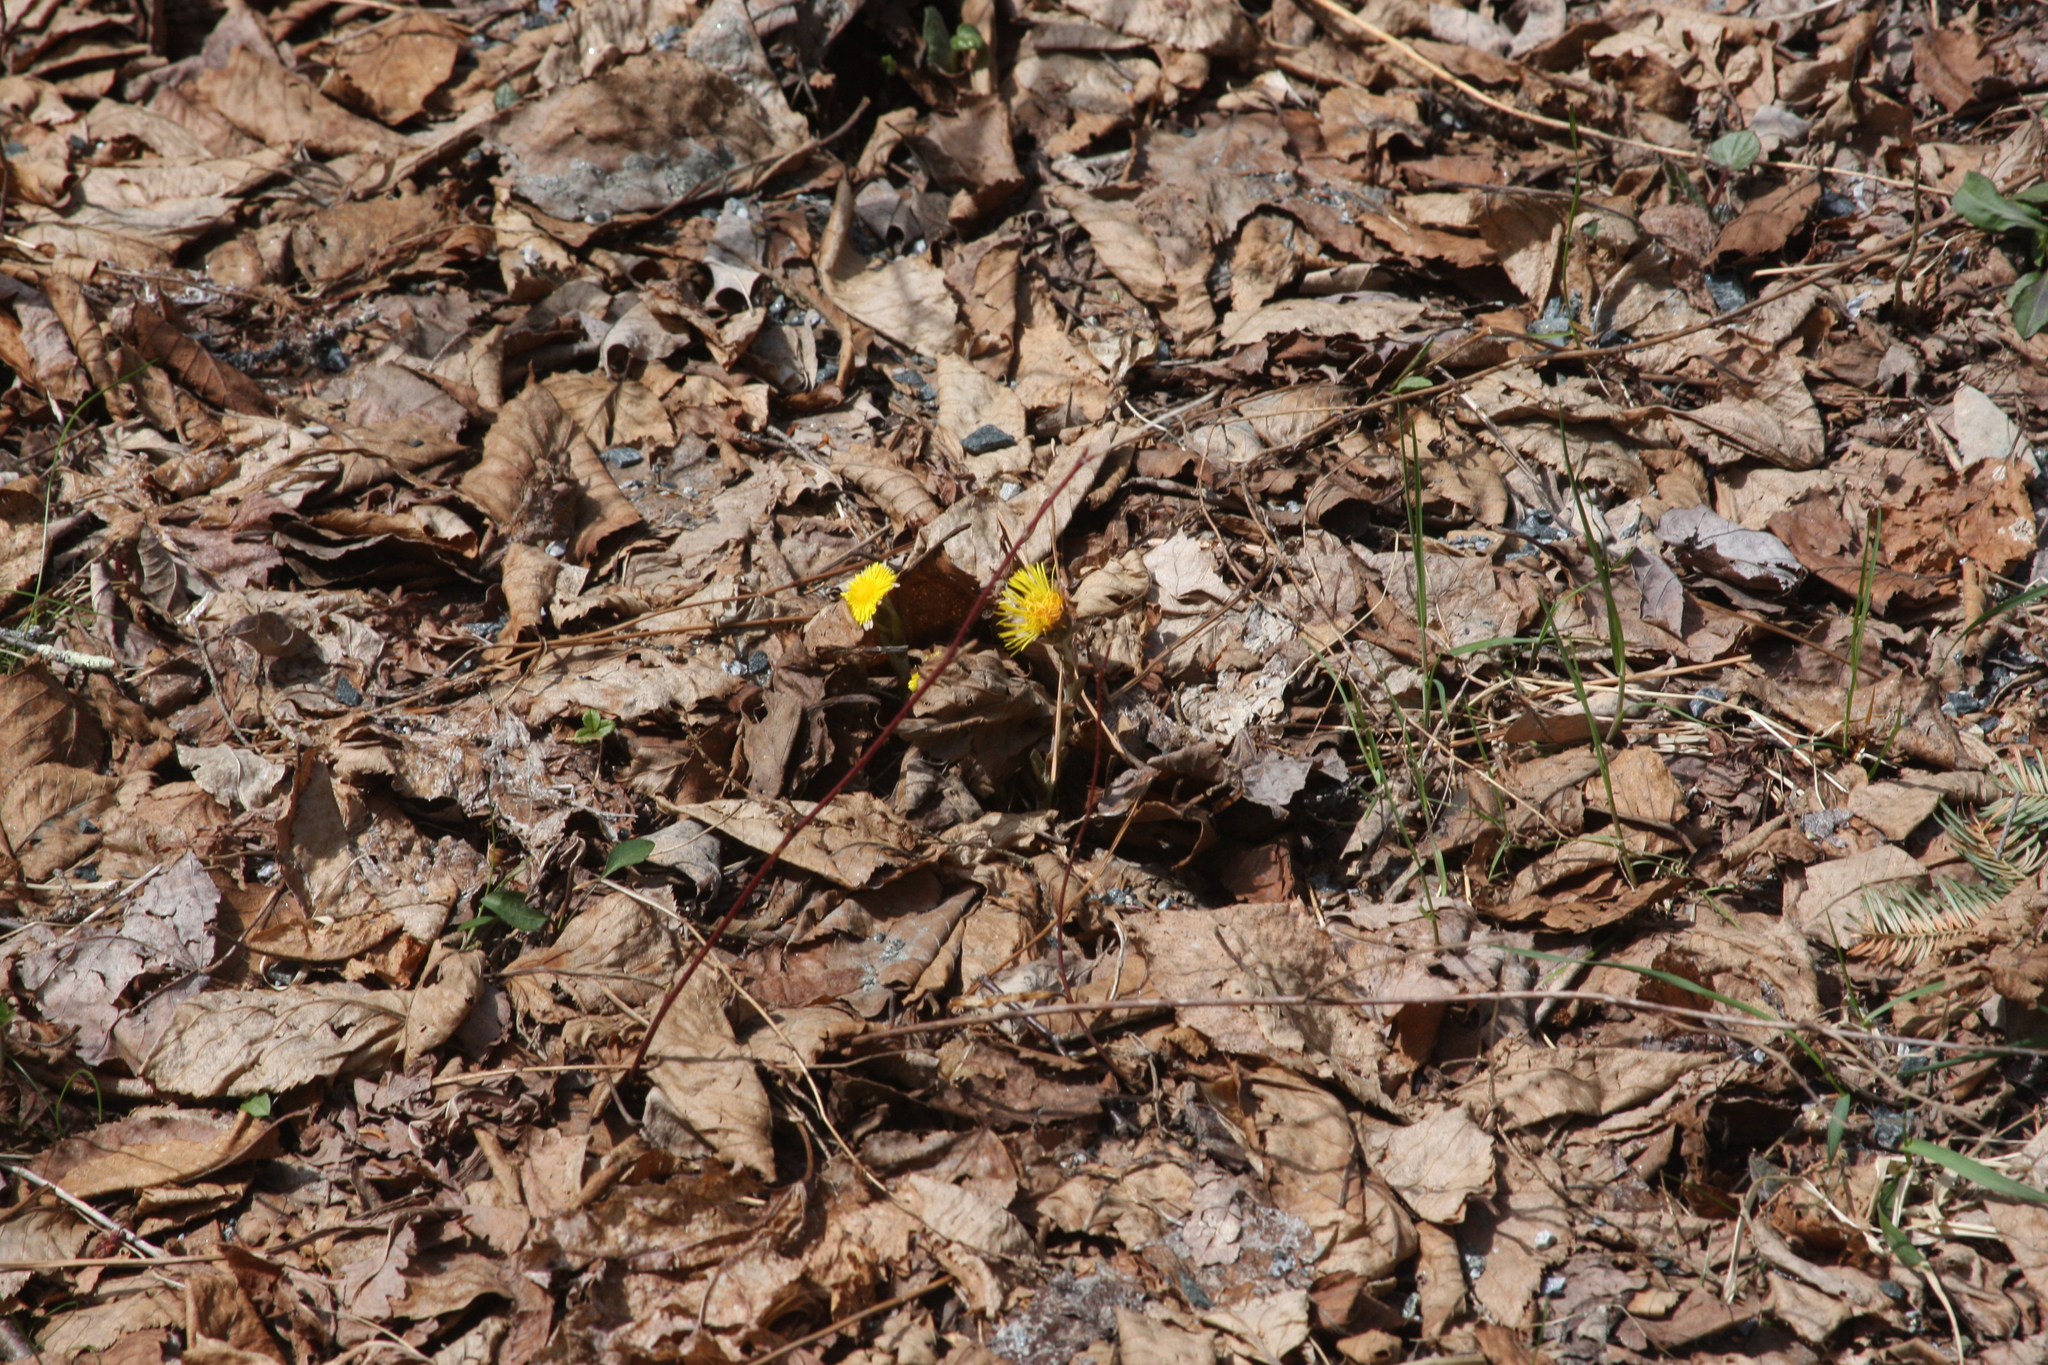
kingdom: Plantae
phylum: Tracheophyta
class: Magnoliopsida
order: Asterales
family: Asteraceae
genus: Tussilago
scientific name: Tussilago farfara
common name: Coltsfoot
